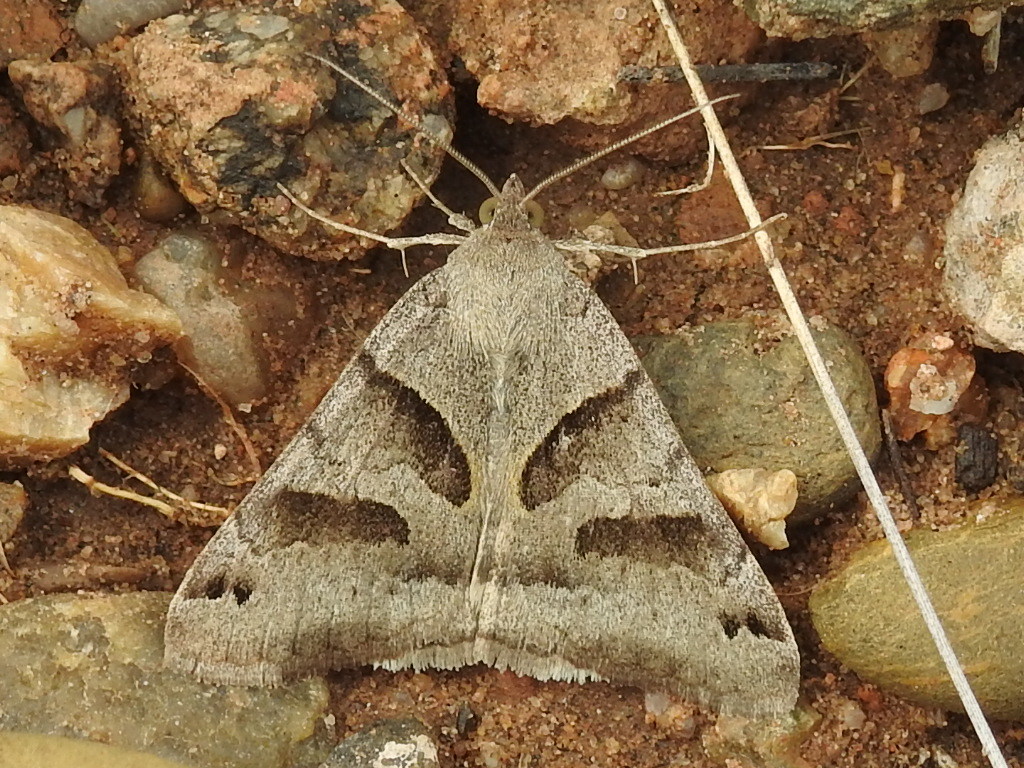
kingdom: Animalia
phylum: Arthropoda
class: Insecta
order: Lepidoptera
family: Erebidae
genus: Caenurgina
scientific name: Caenurgina erechtea
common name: Forage looper moth
